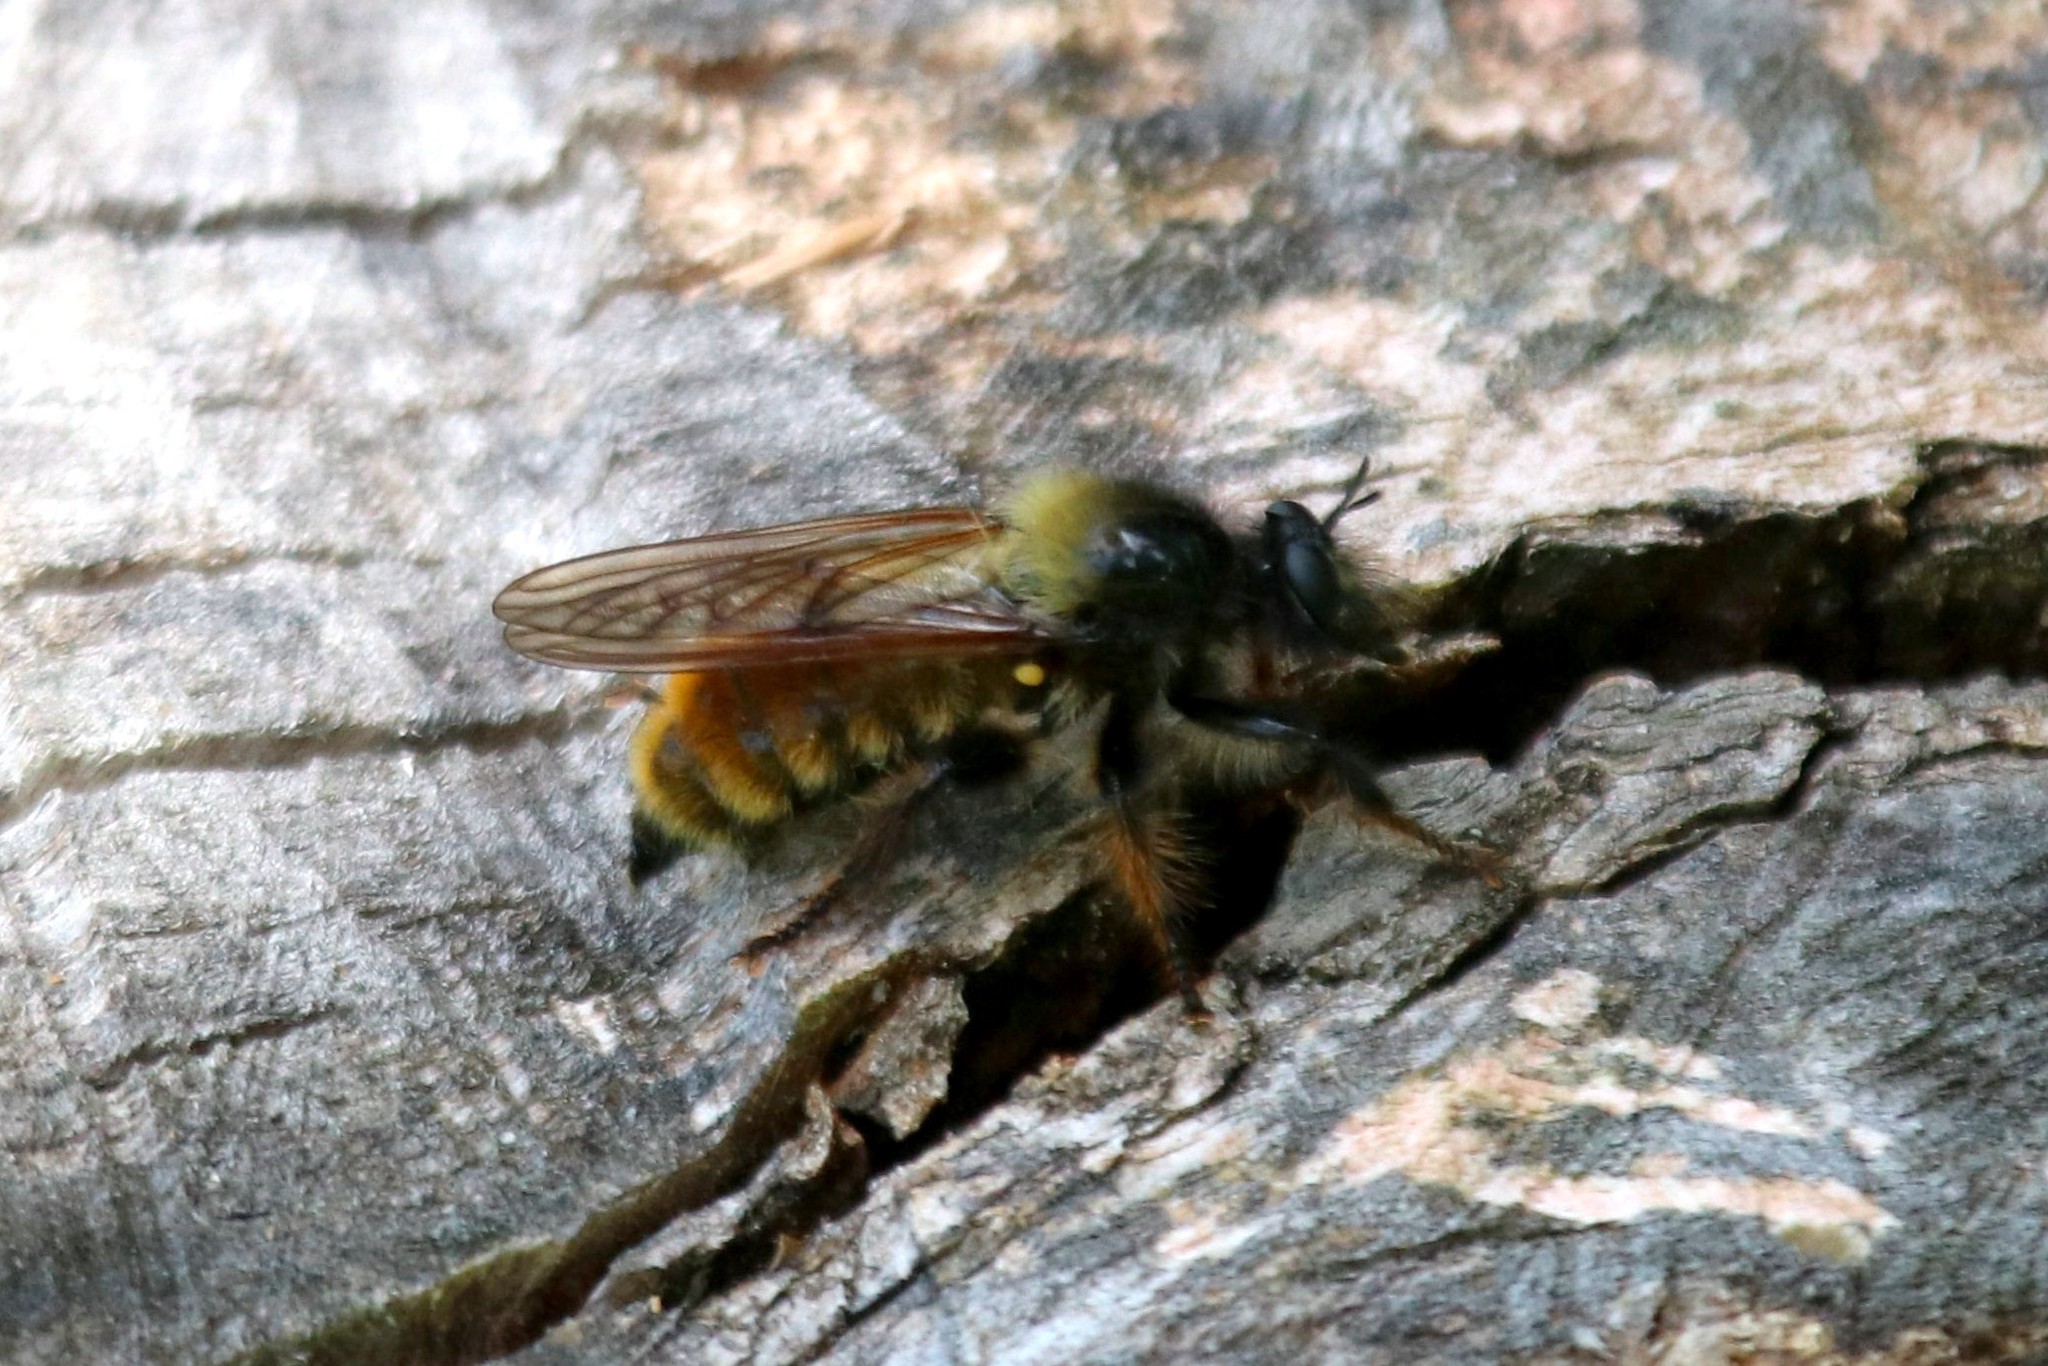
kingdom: Animalia
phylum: Arthropoda
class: Insecta
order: Diptera
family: Asilidae
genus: Laphria
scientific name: Laphria flava
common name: Bumblebee robberfly
